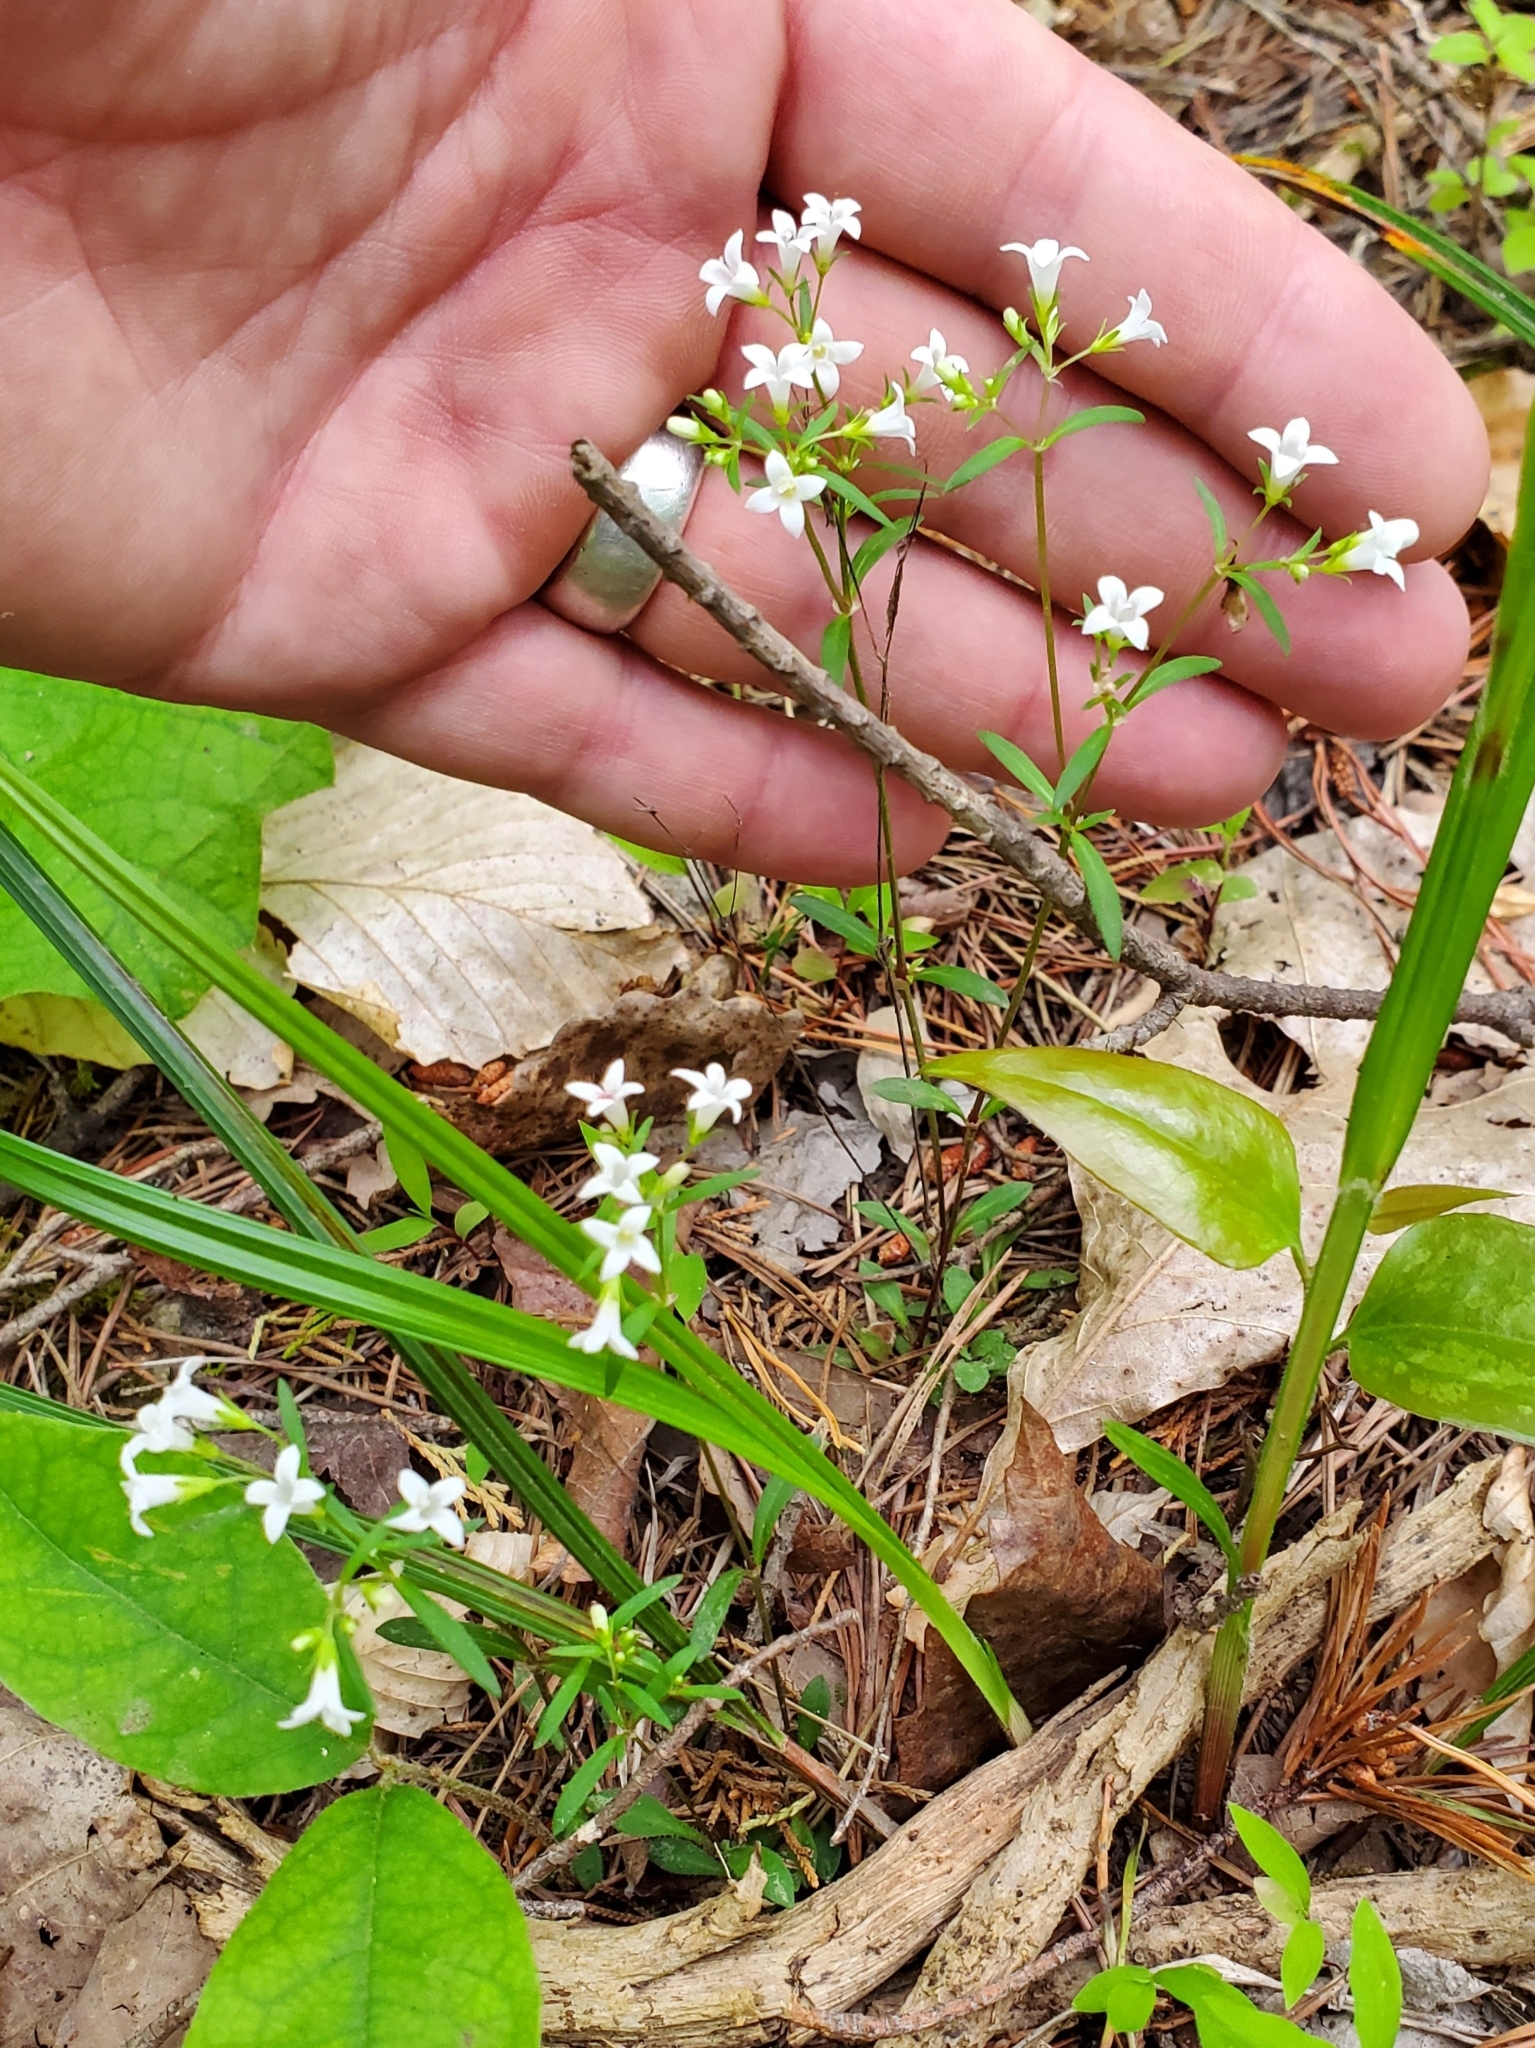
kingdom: Plantae
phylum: Tracheophyta
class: Magnoliopsida
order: Gentianales
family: Rubiaceae
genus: Houstonia
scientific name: Houstonia canadensis
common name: Fringed houstonia
